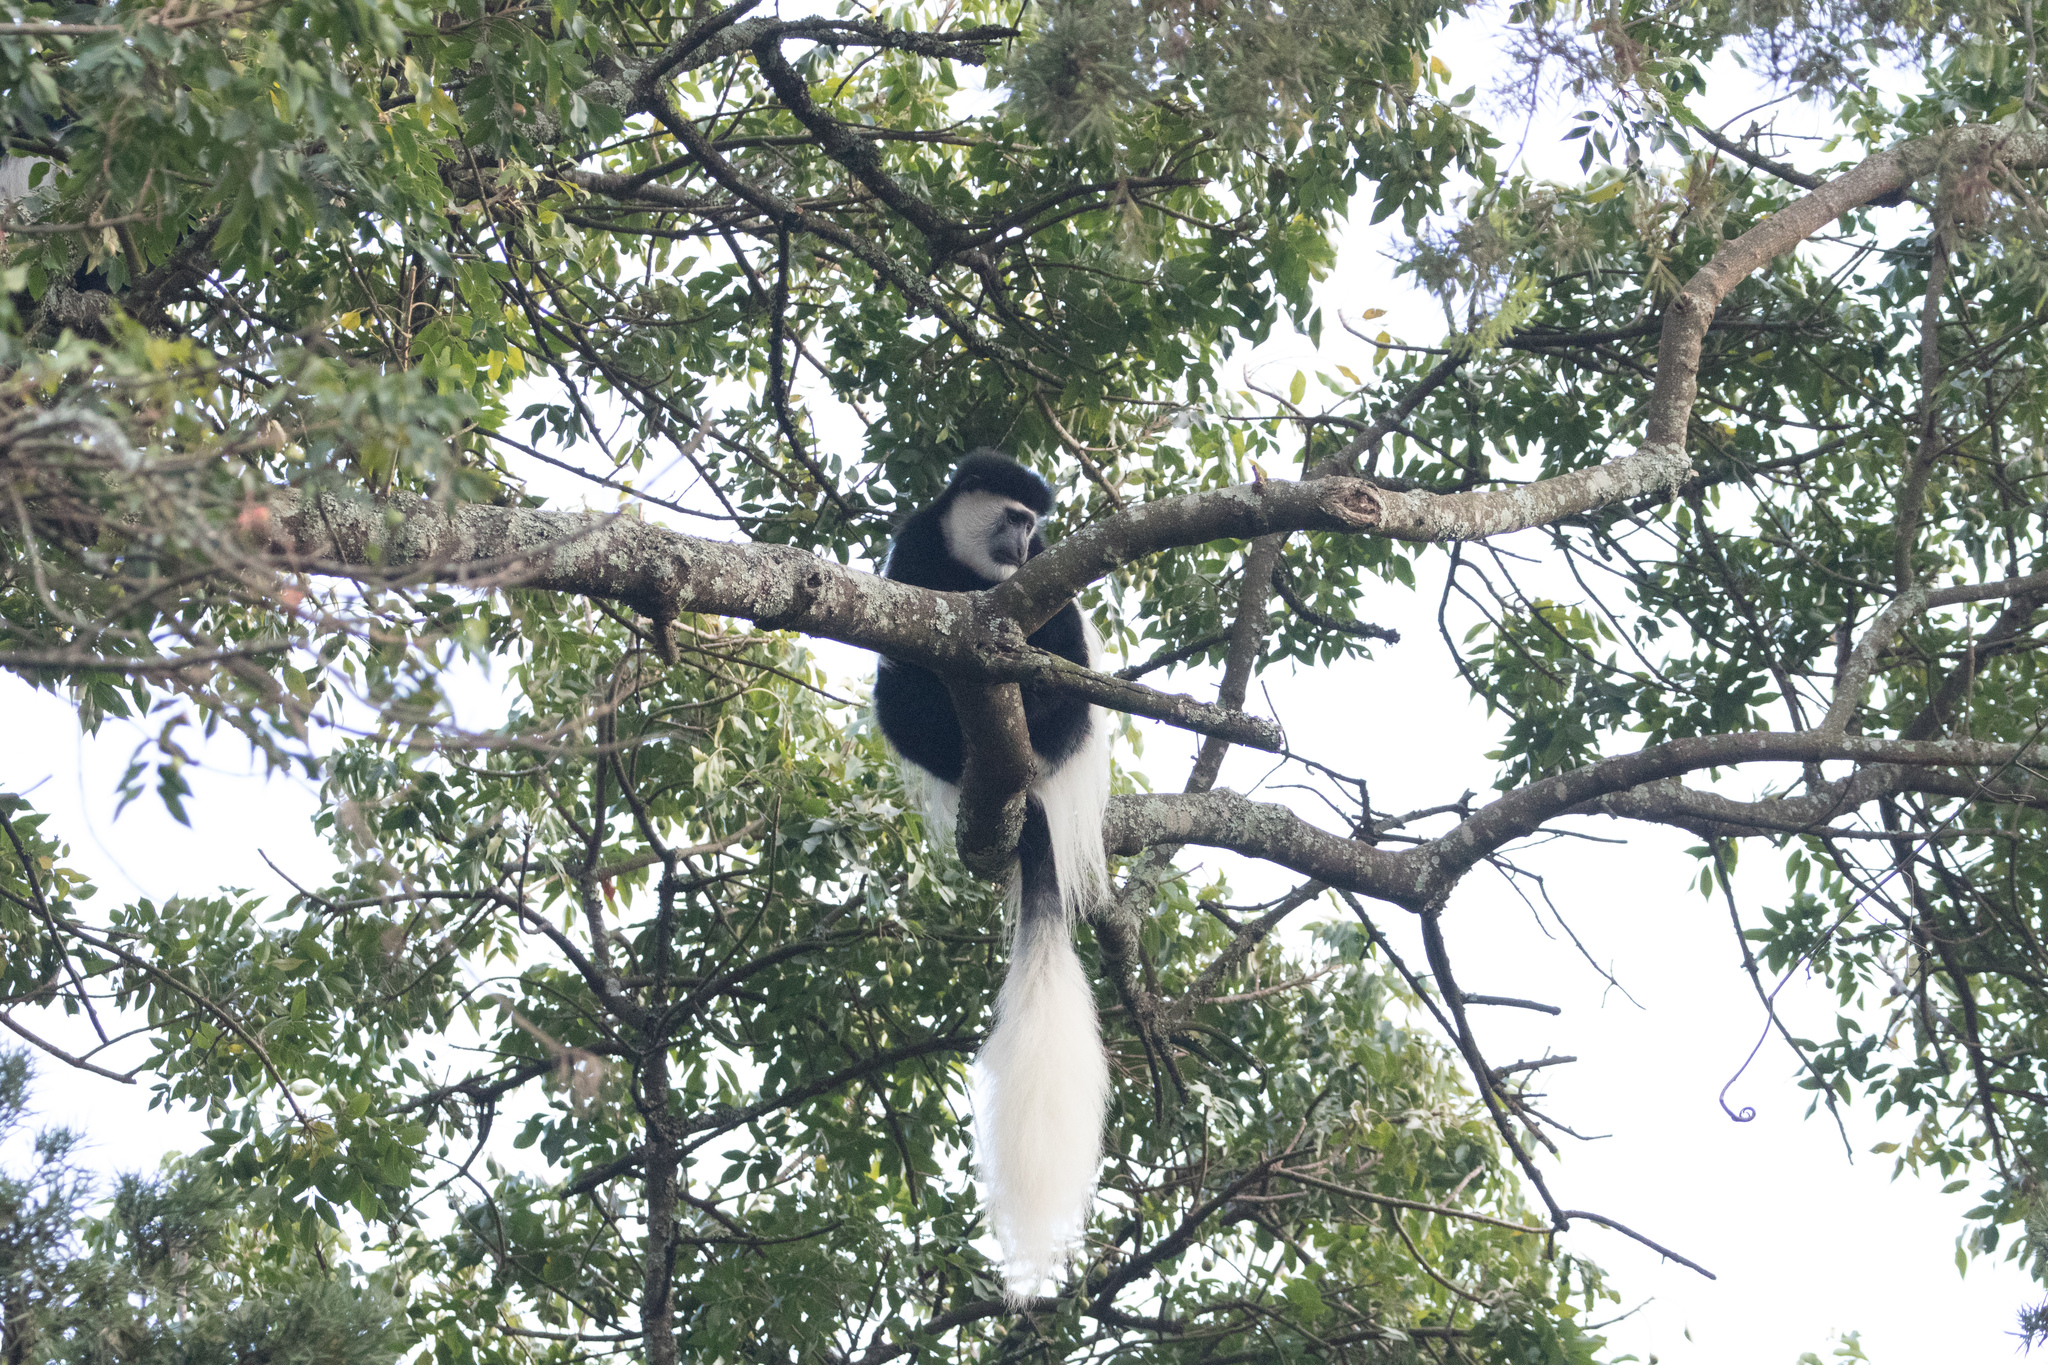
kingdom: Animalia
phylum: Chordata
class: Mammalia
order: Primates
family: Cercopithecidae
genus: Colobus
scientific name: Colobus guereza
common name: Mantled guereza
